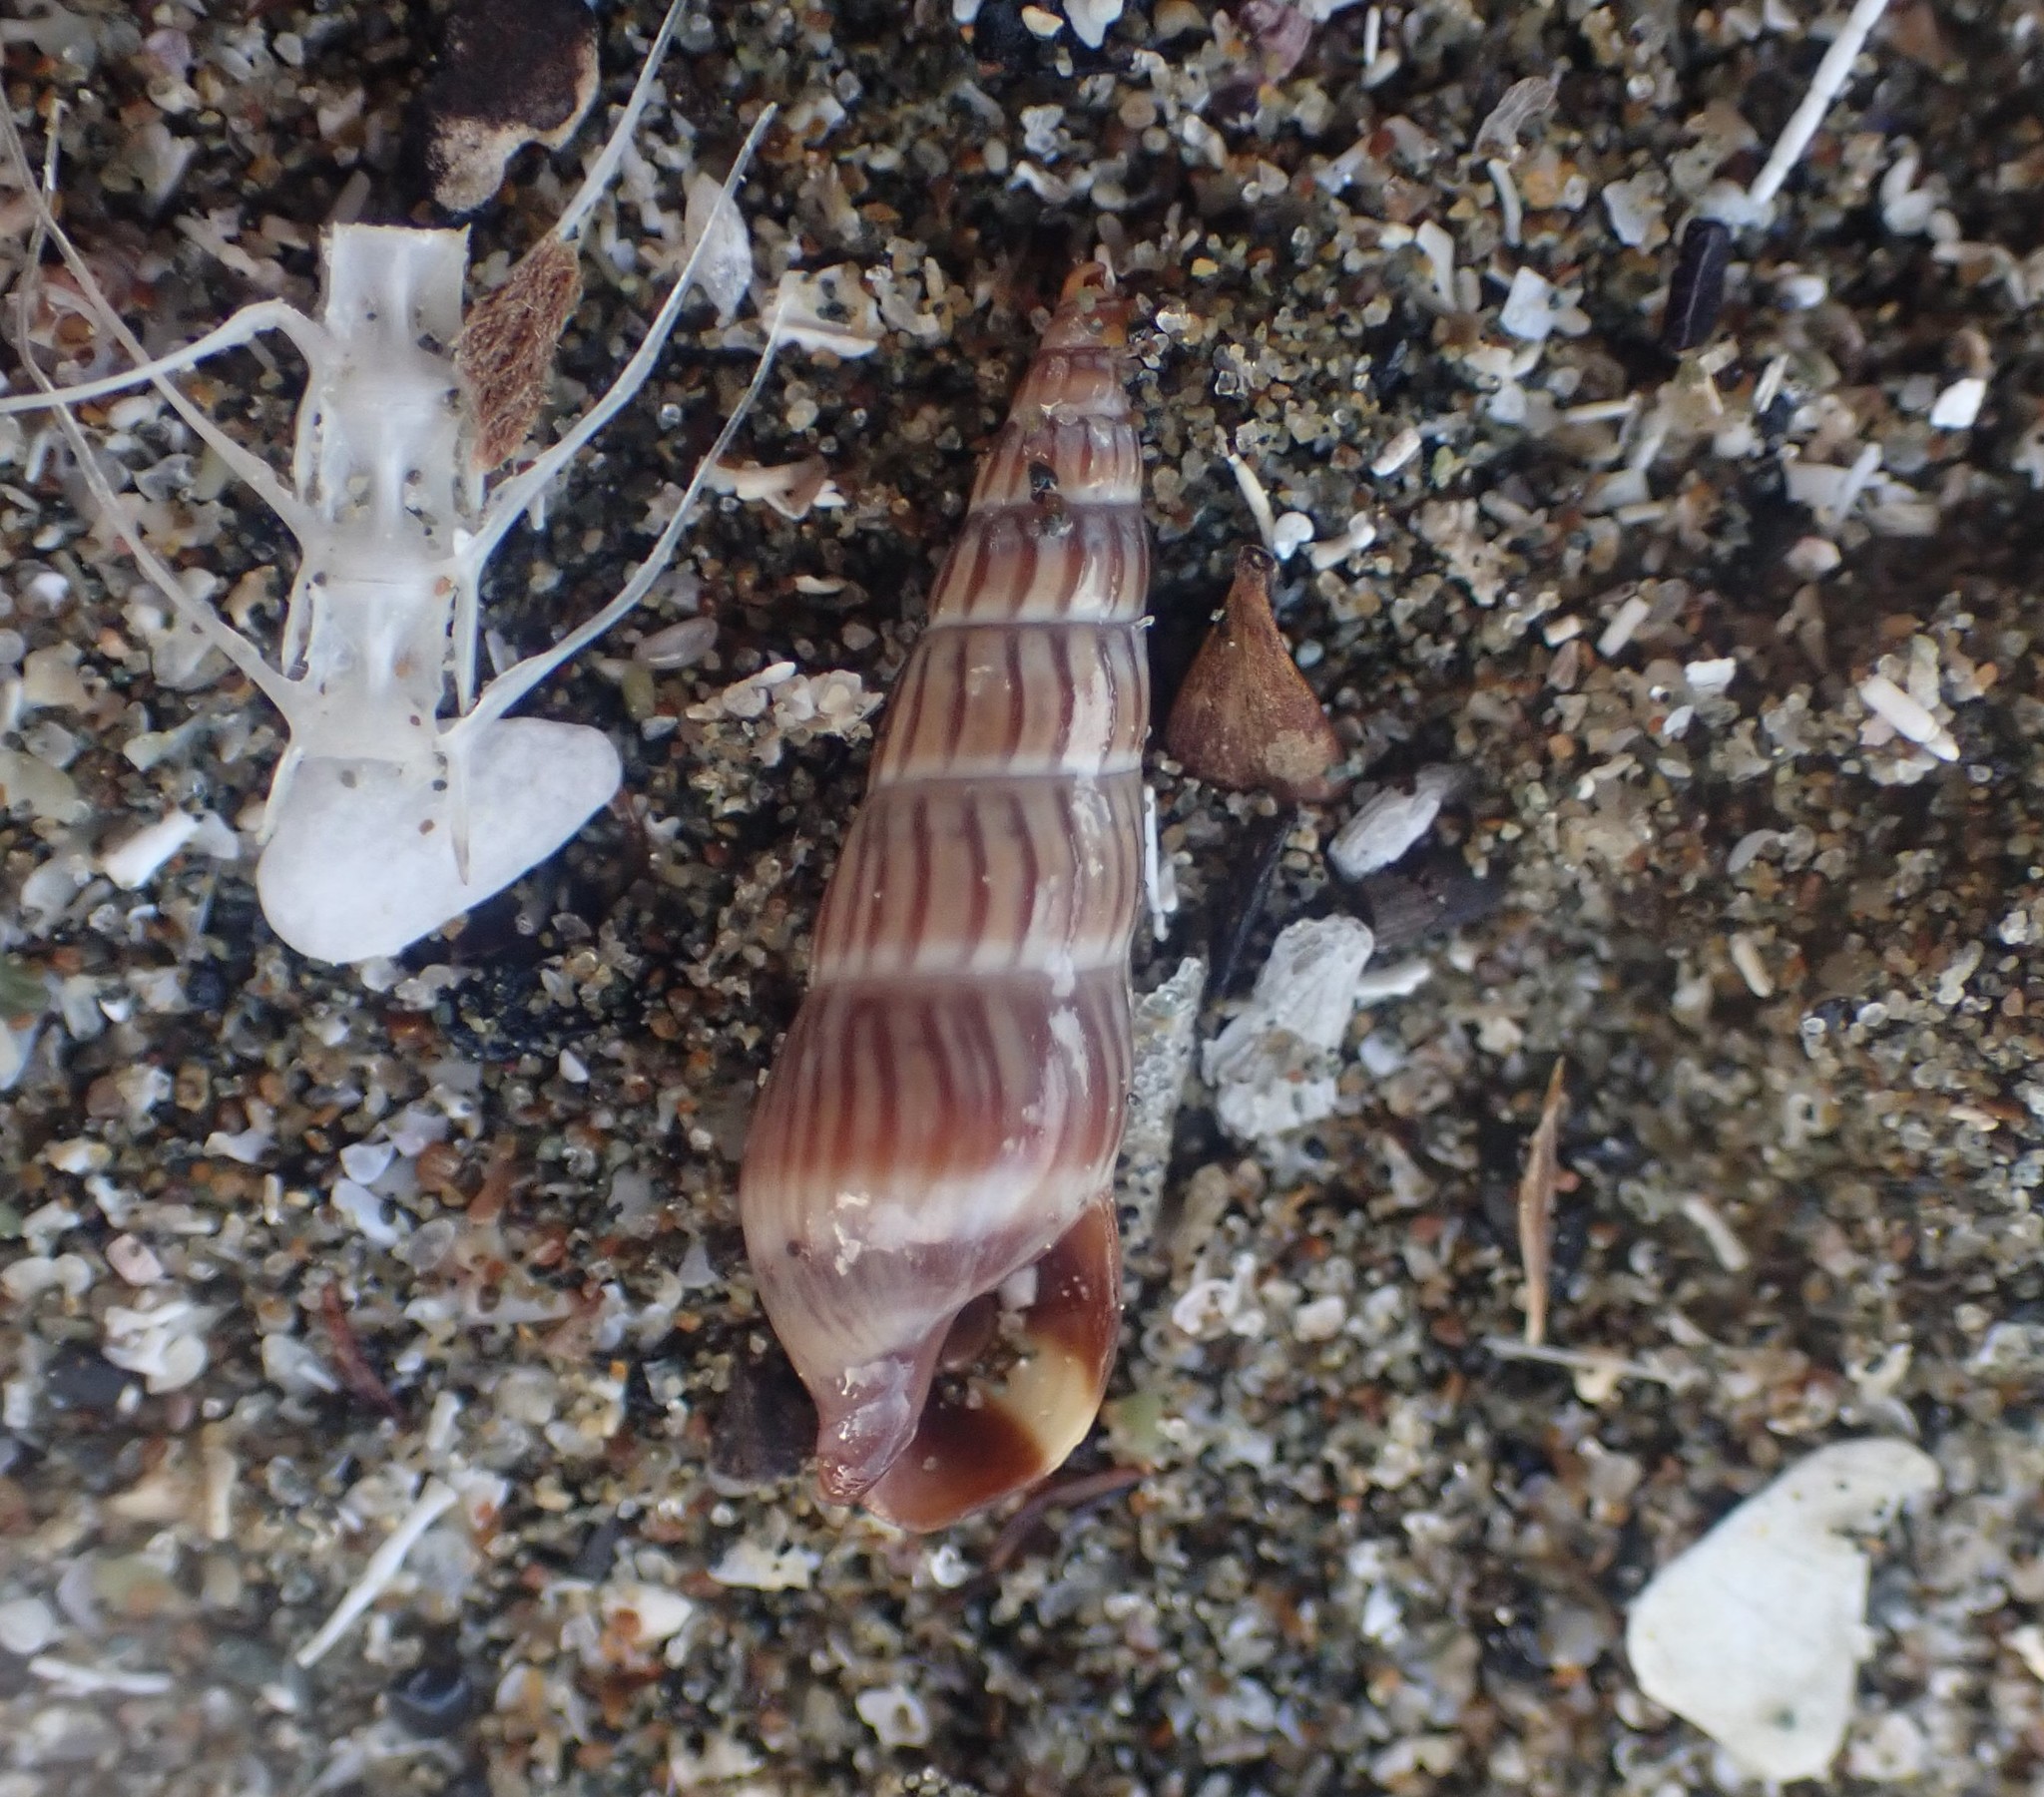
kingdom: Animalia
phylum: Mollusca
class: Gastropoda
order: Neogastropoda
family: Terebridae
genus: Duplicaria
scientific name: Duplicaria tristis
